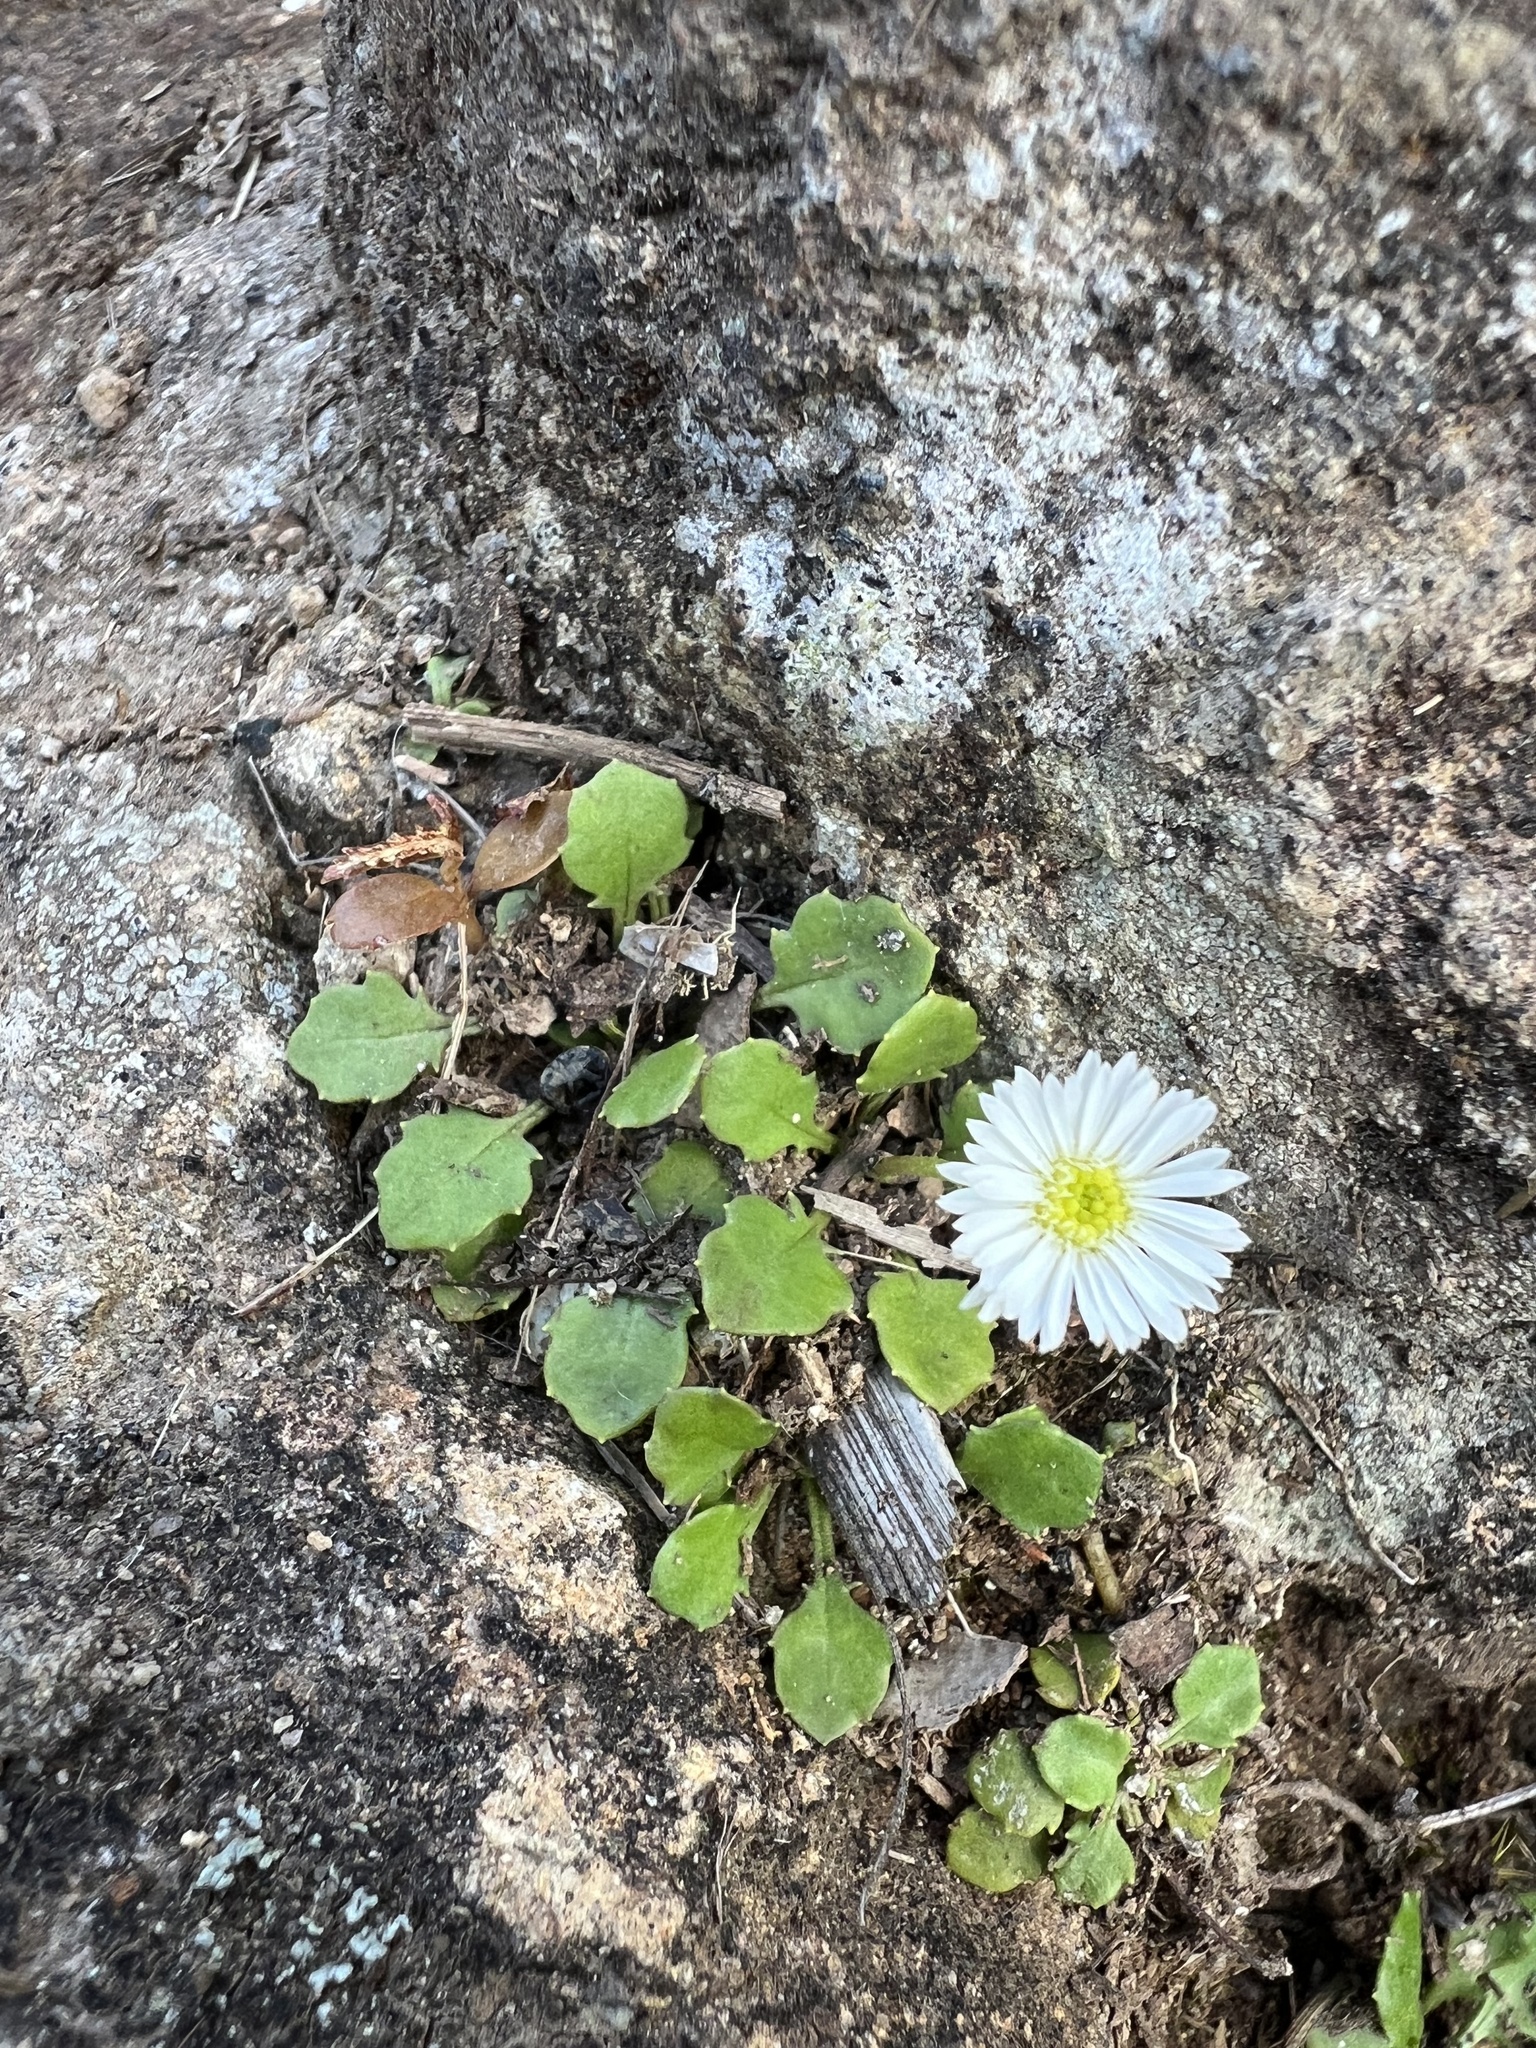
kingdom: Plantae
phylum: Tracheophyta
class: Magnoliopsida
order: Asterales
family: Asteraceae
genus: Lagenophora
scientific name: Lagenophora pumila
